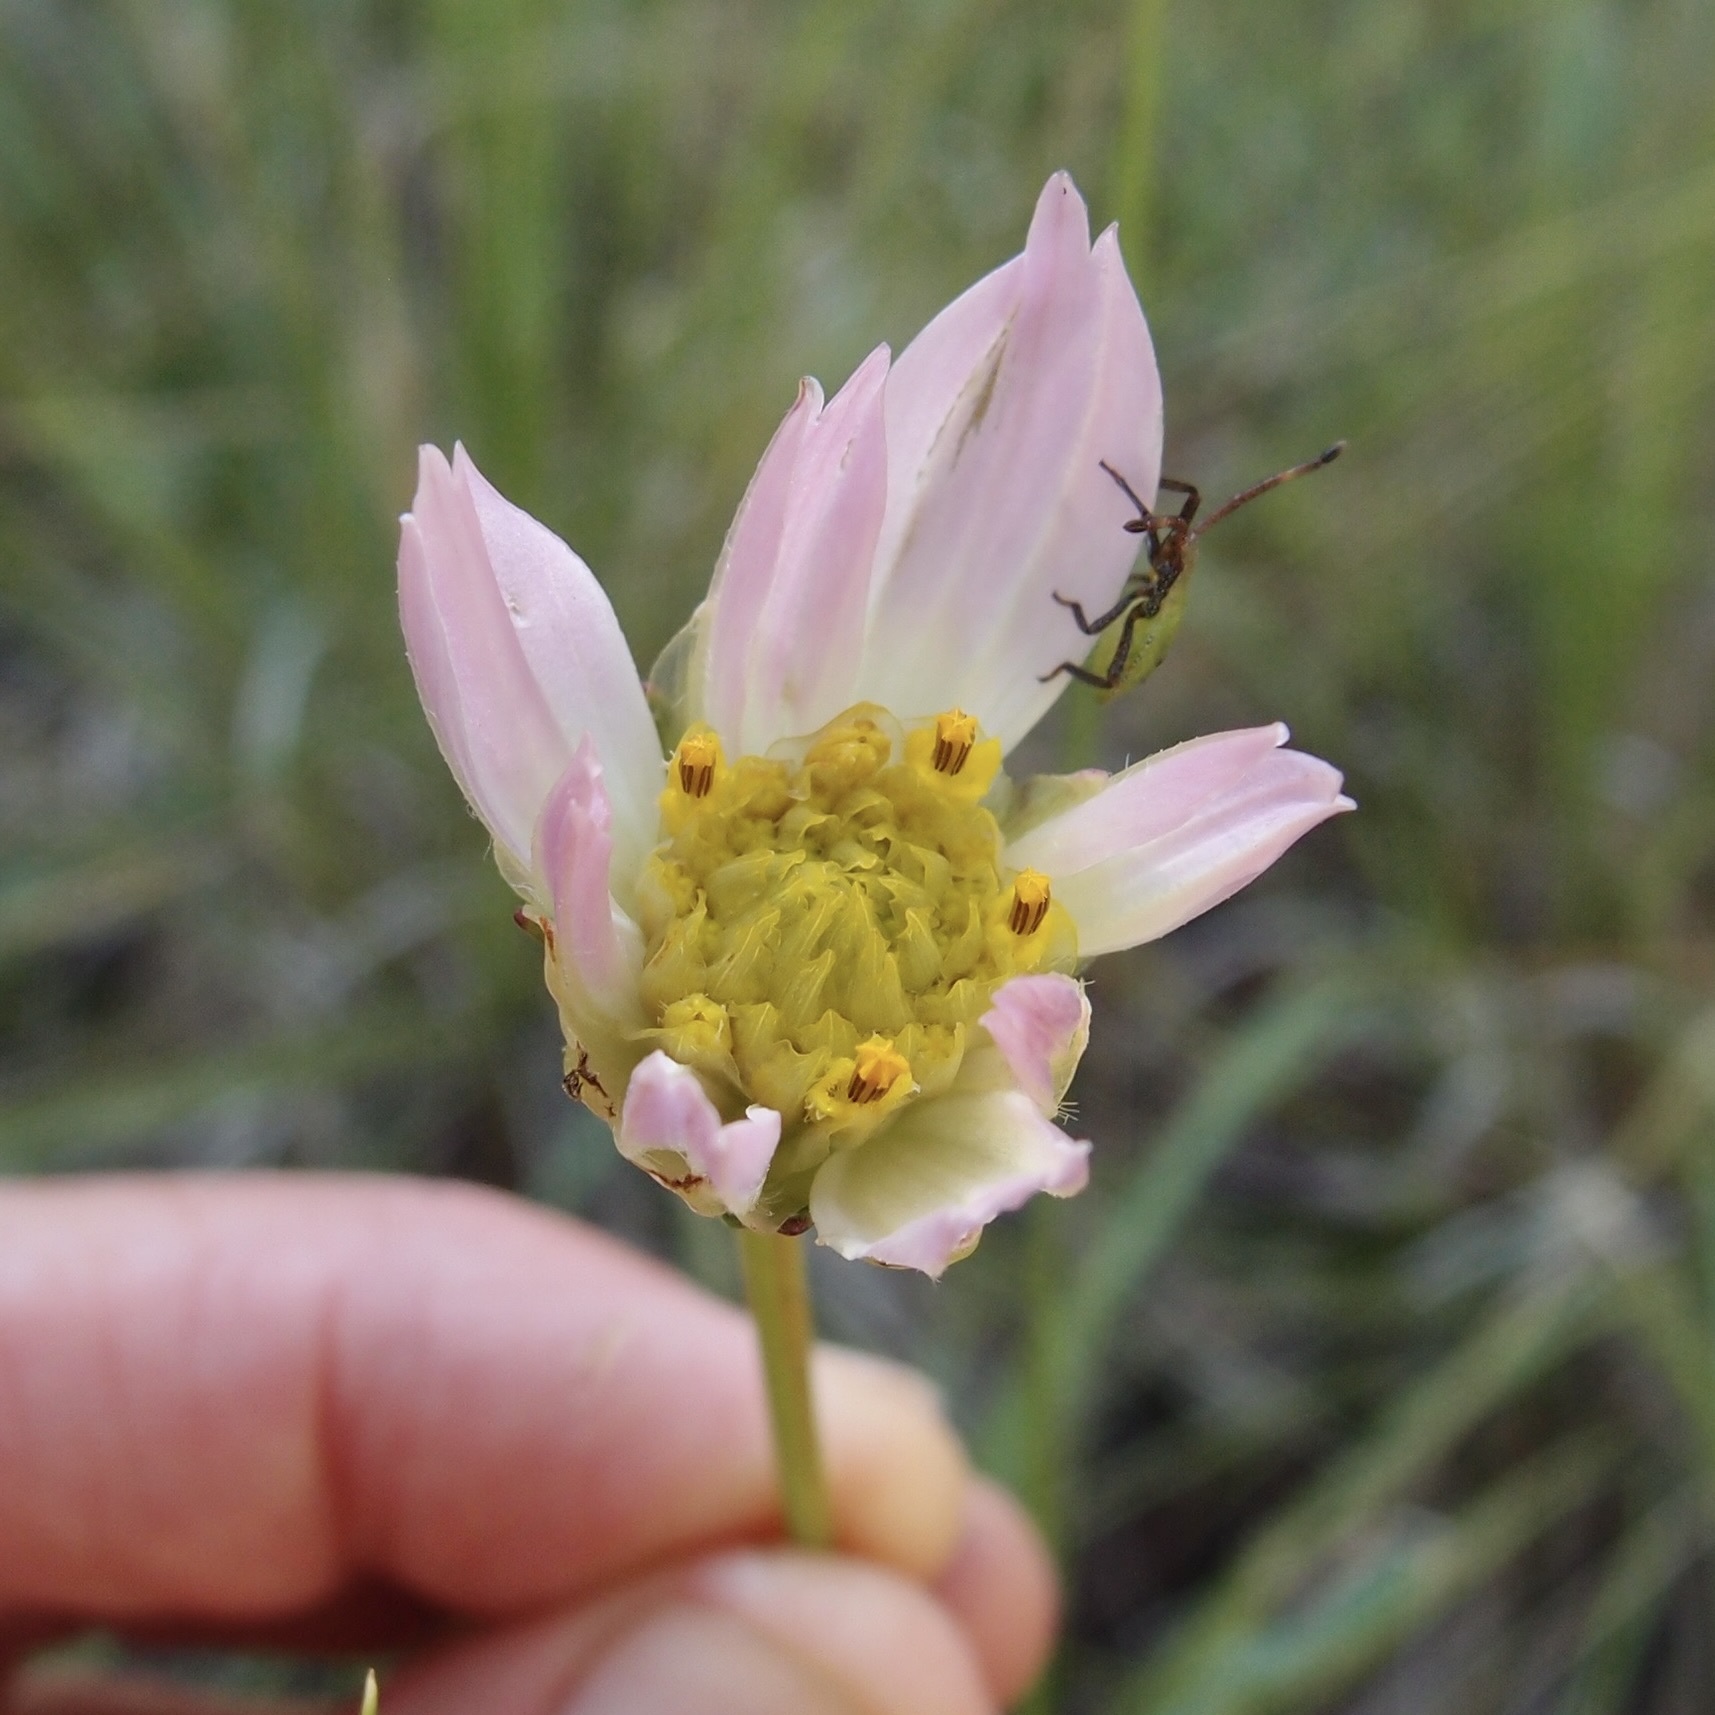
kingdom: Plantae
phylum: Tracheophyta
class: Magnoliopsida
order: Asterales
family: Asteraceae
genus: Cosmos
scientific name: Cosmos pringlei
